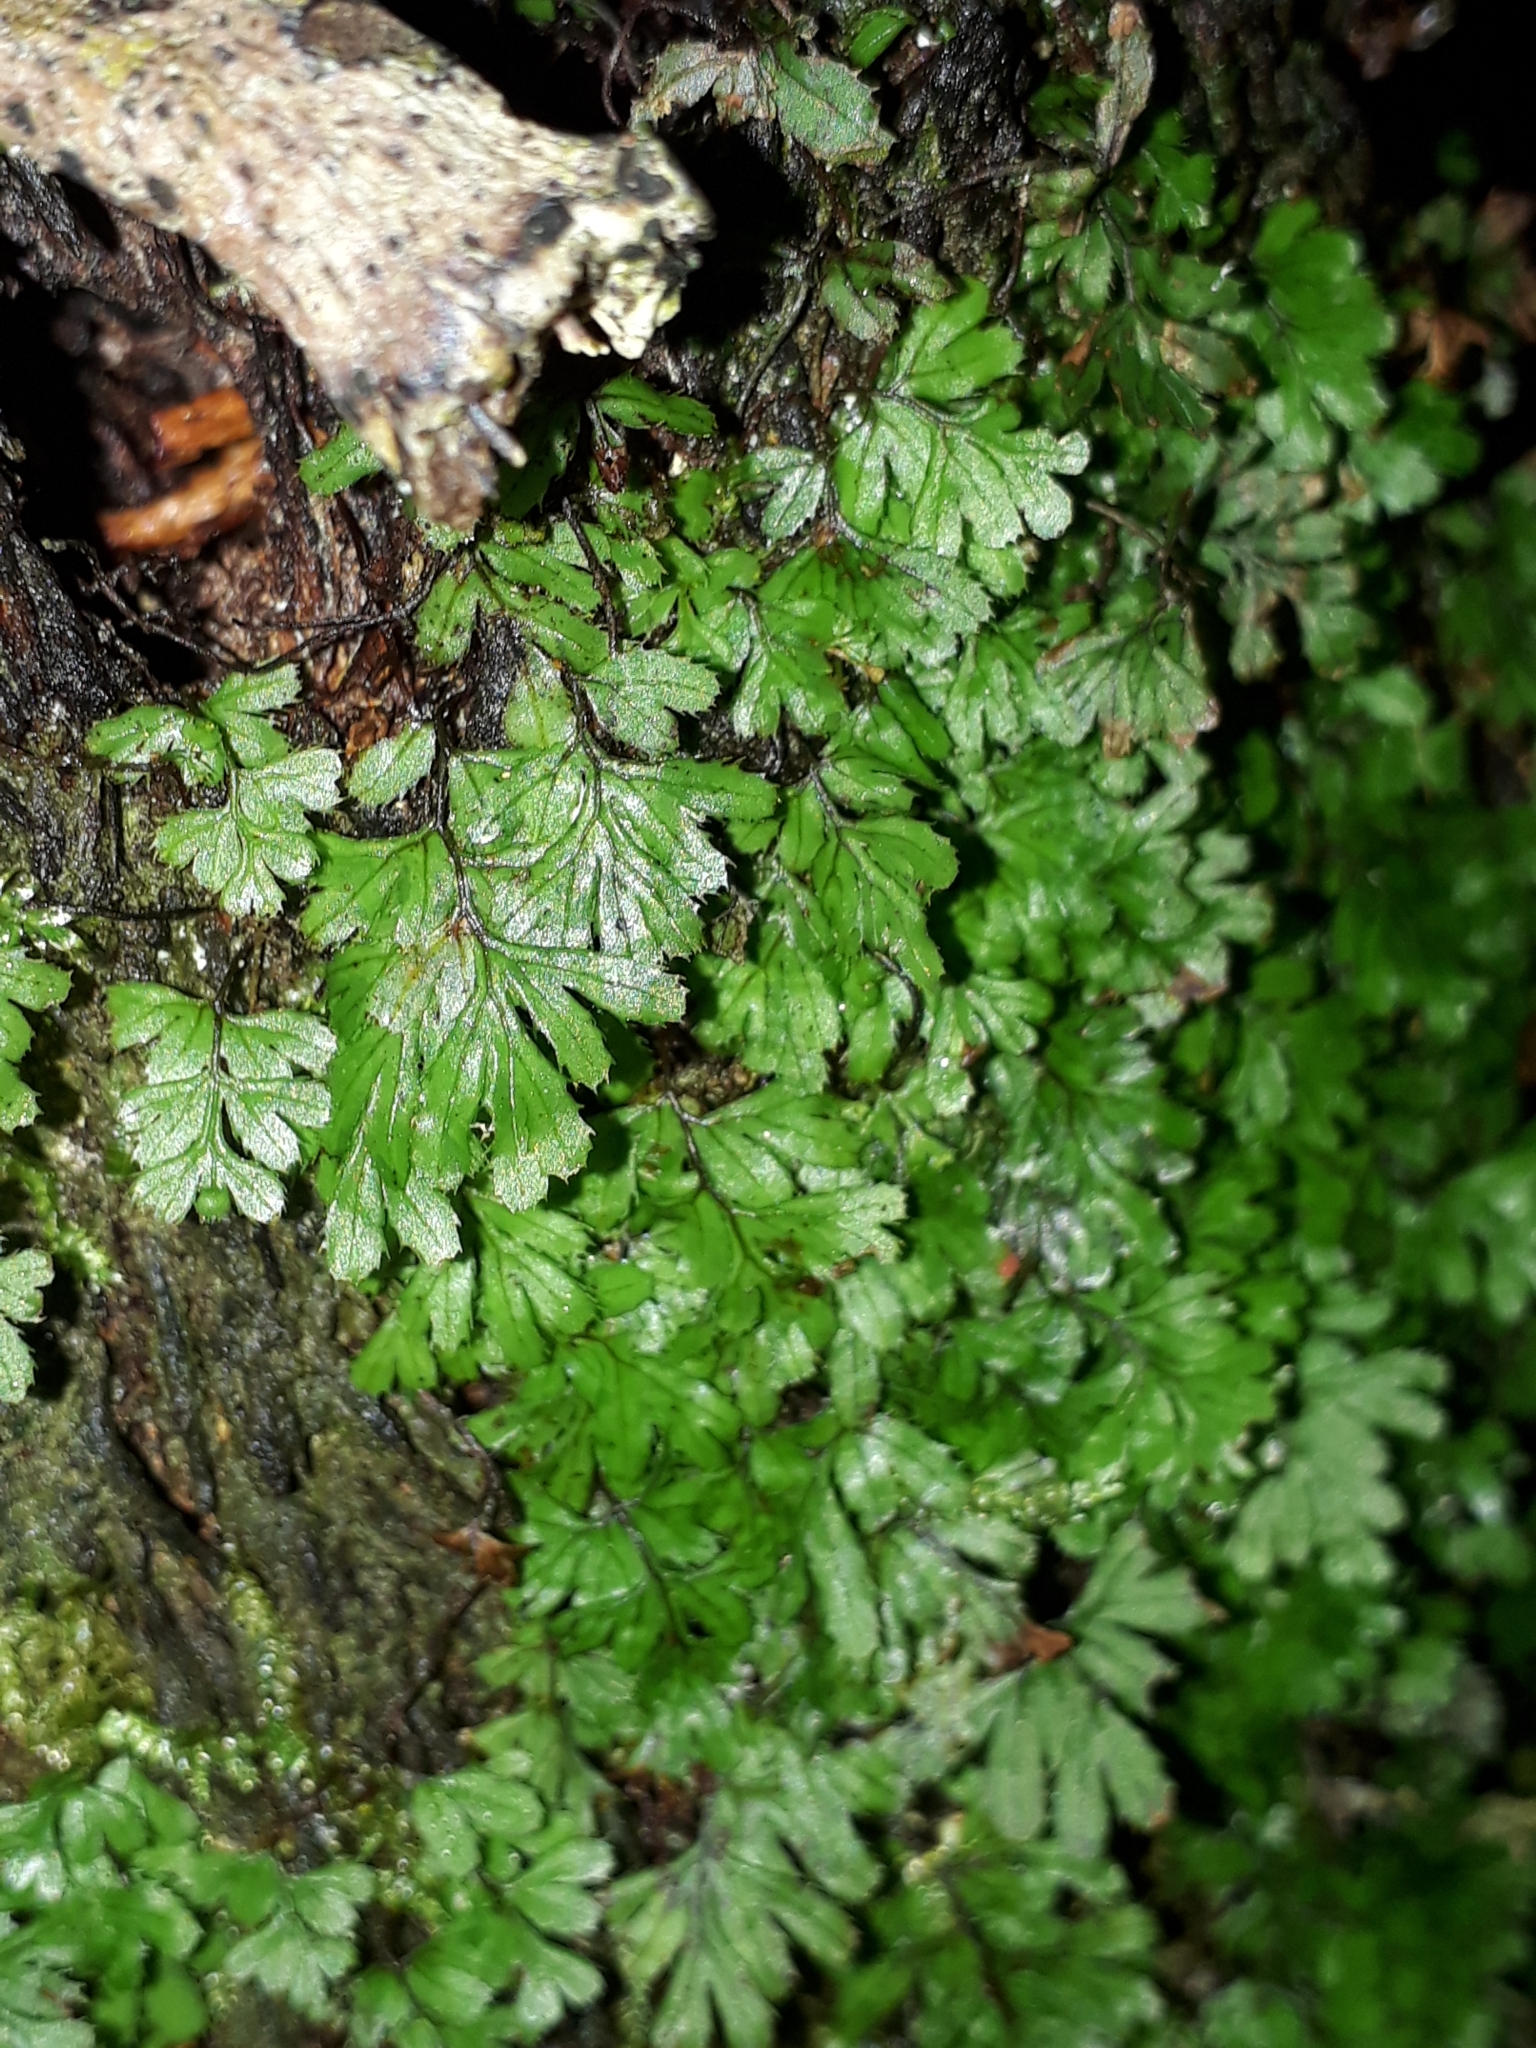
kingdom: Plantae
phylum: Tracheophyta
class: Polypodiopsida
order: Hymenophyllales
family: Hymenophyllaceae
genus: Hymenophyllum
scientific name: Hymenophyllum revolutum
